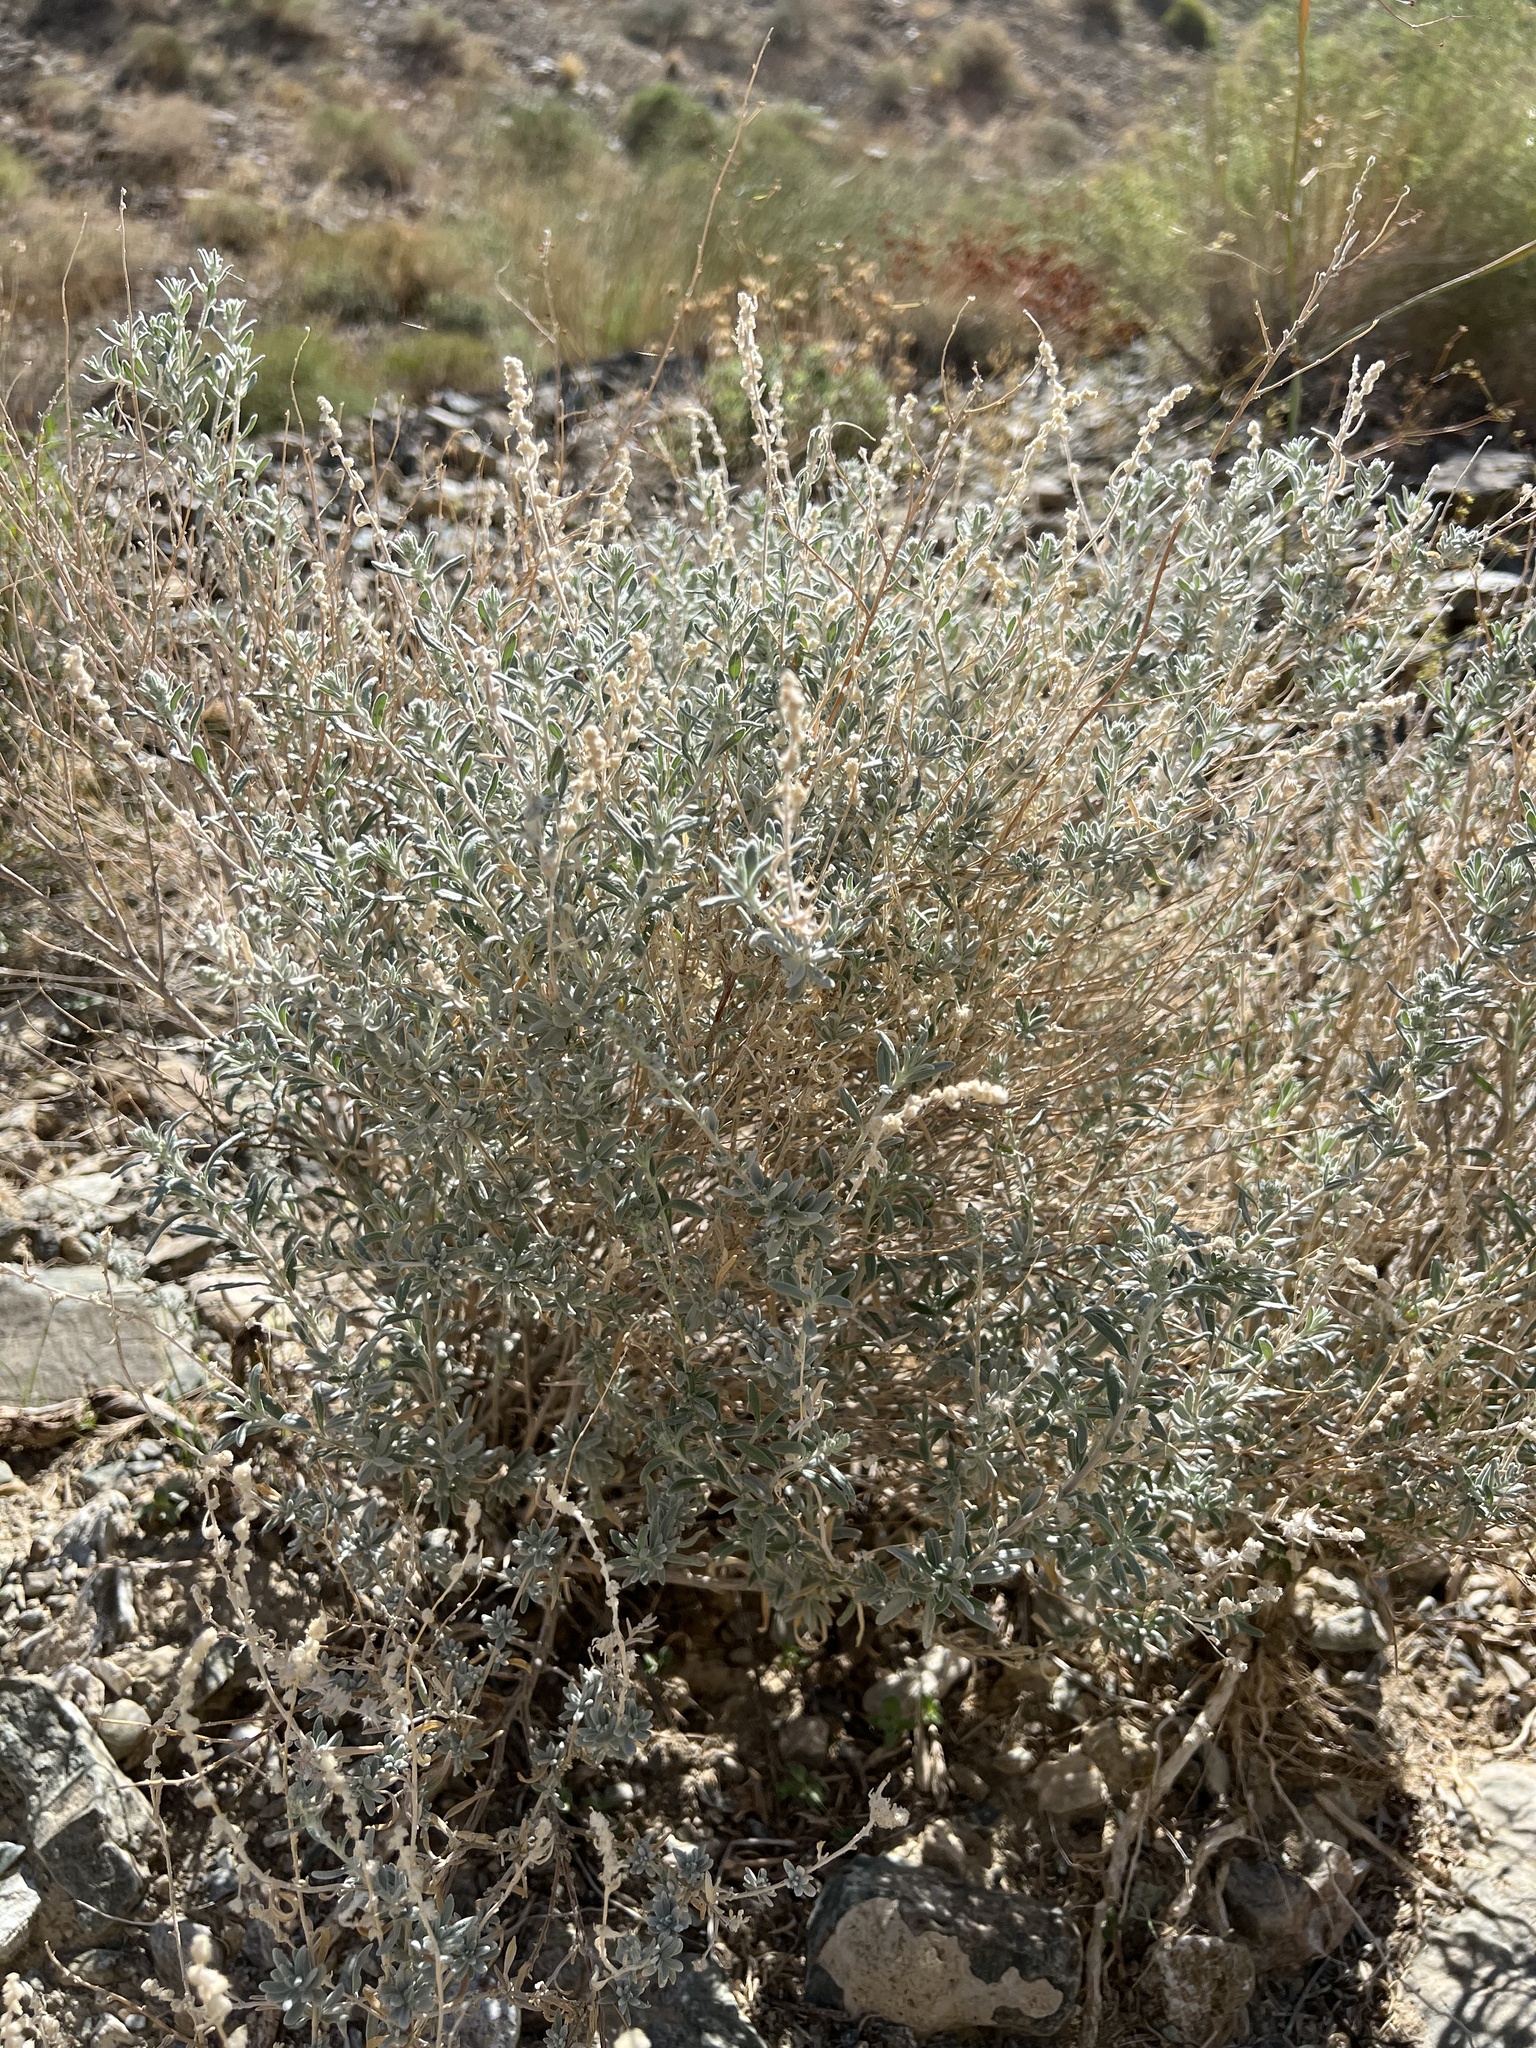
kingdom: Plantae
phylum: Tracheophyta
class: Magnoliopsida
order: Caryophyllales
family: Amaranthaceae
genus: Krascheninnikovia
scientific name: Krascheninnikovia lanata
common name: Winterfat
